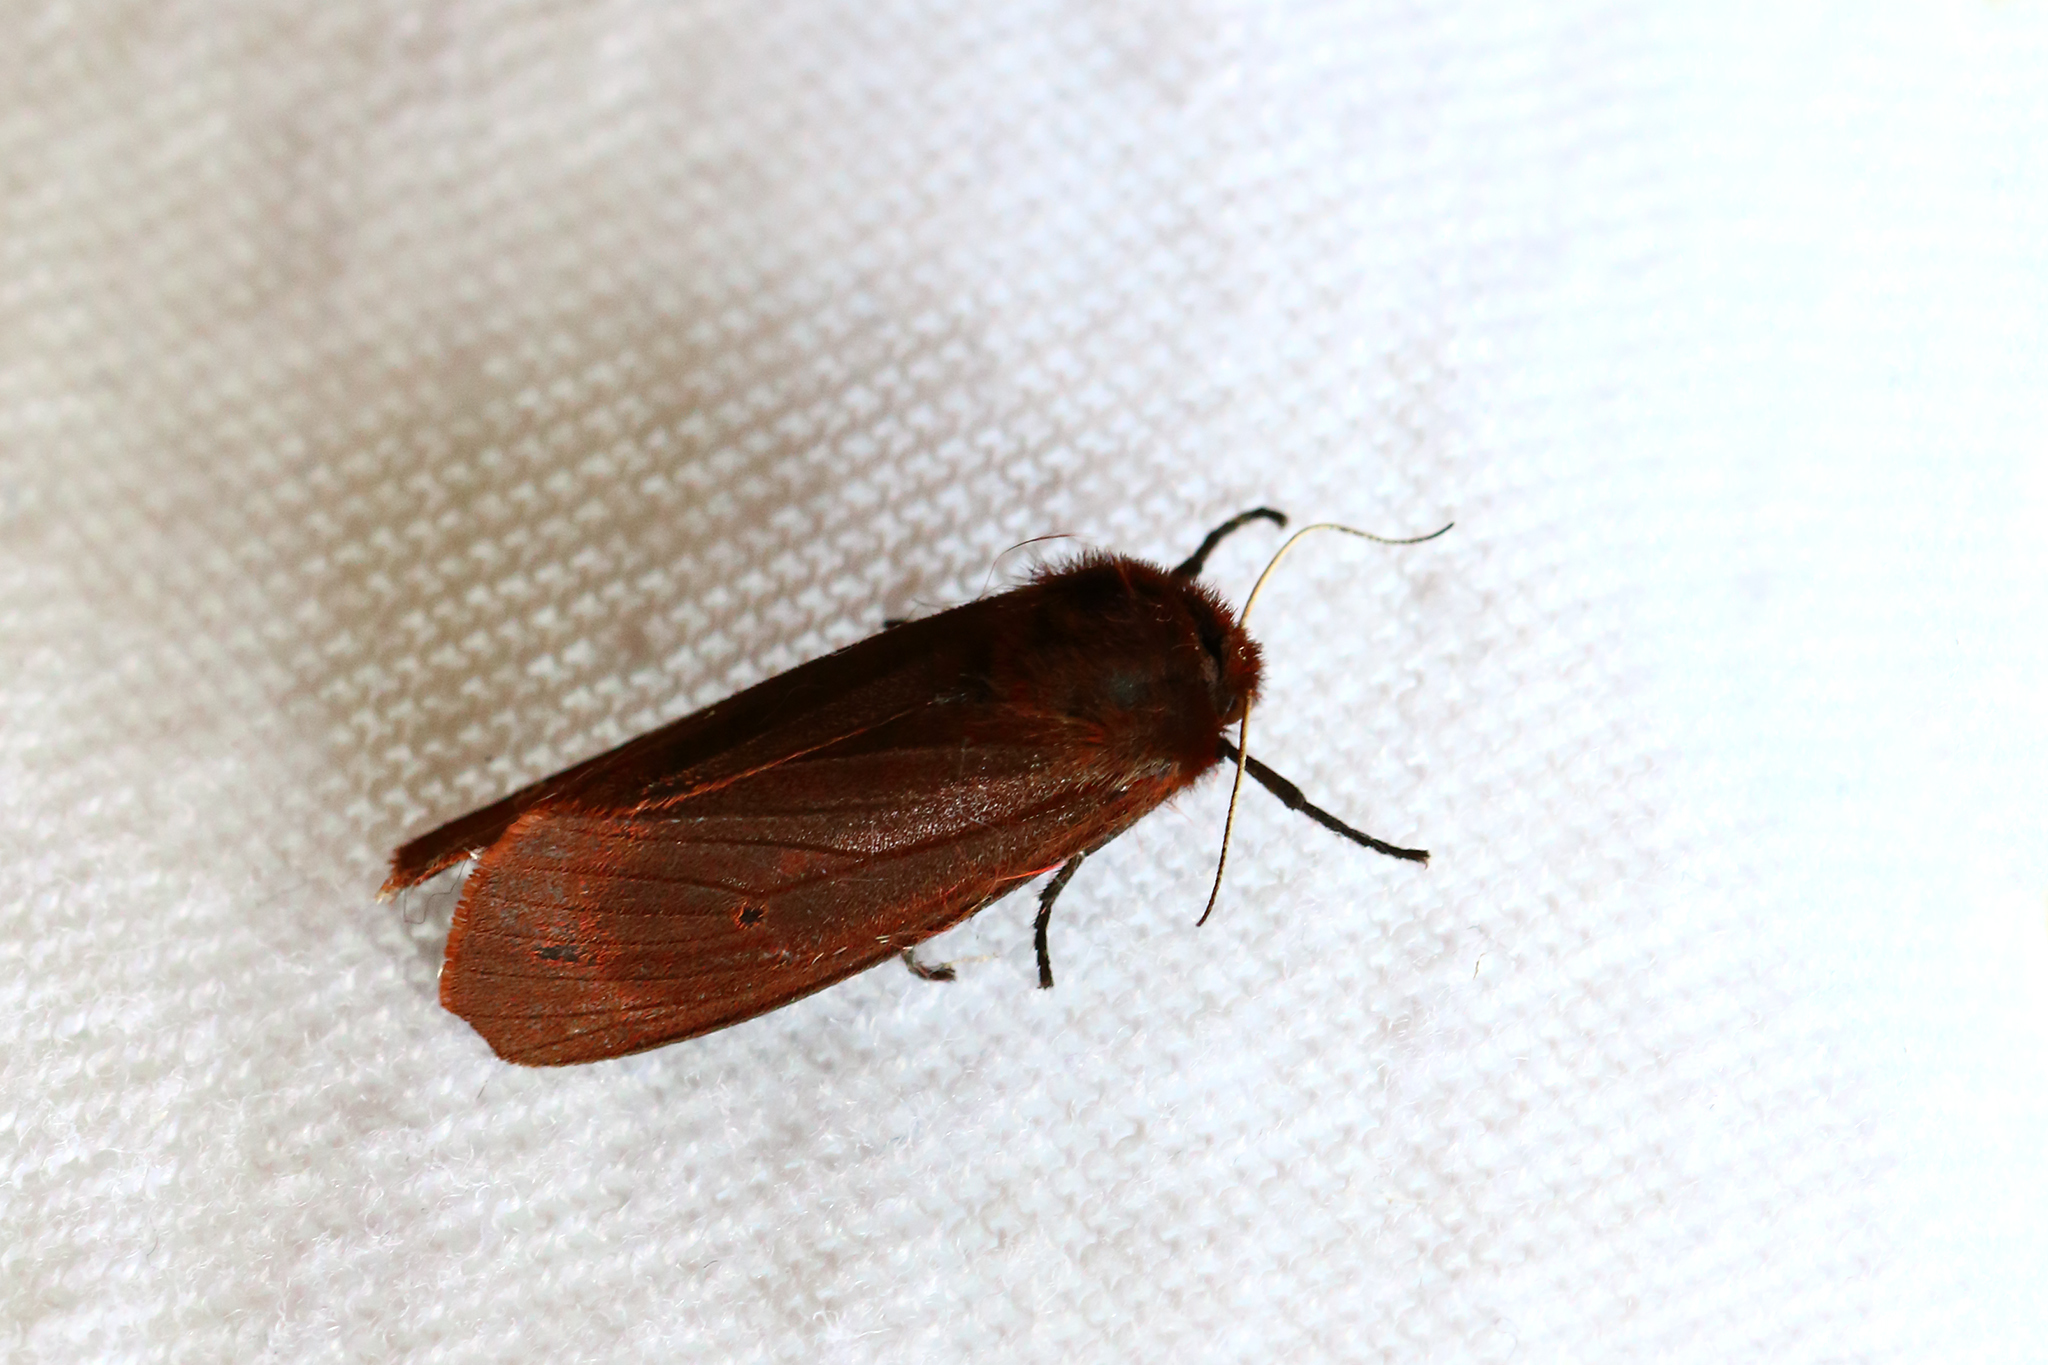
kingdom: Animalia
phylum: Arthropoda
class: Insecta
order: Lepidoptera
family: Erebidae
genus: Phragmatobia
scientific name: Phragmatobia fuliginosa
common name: Ruby tiger
